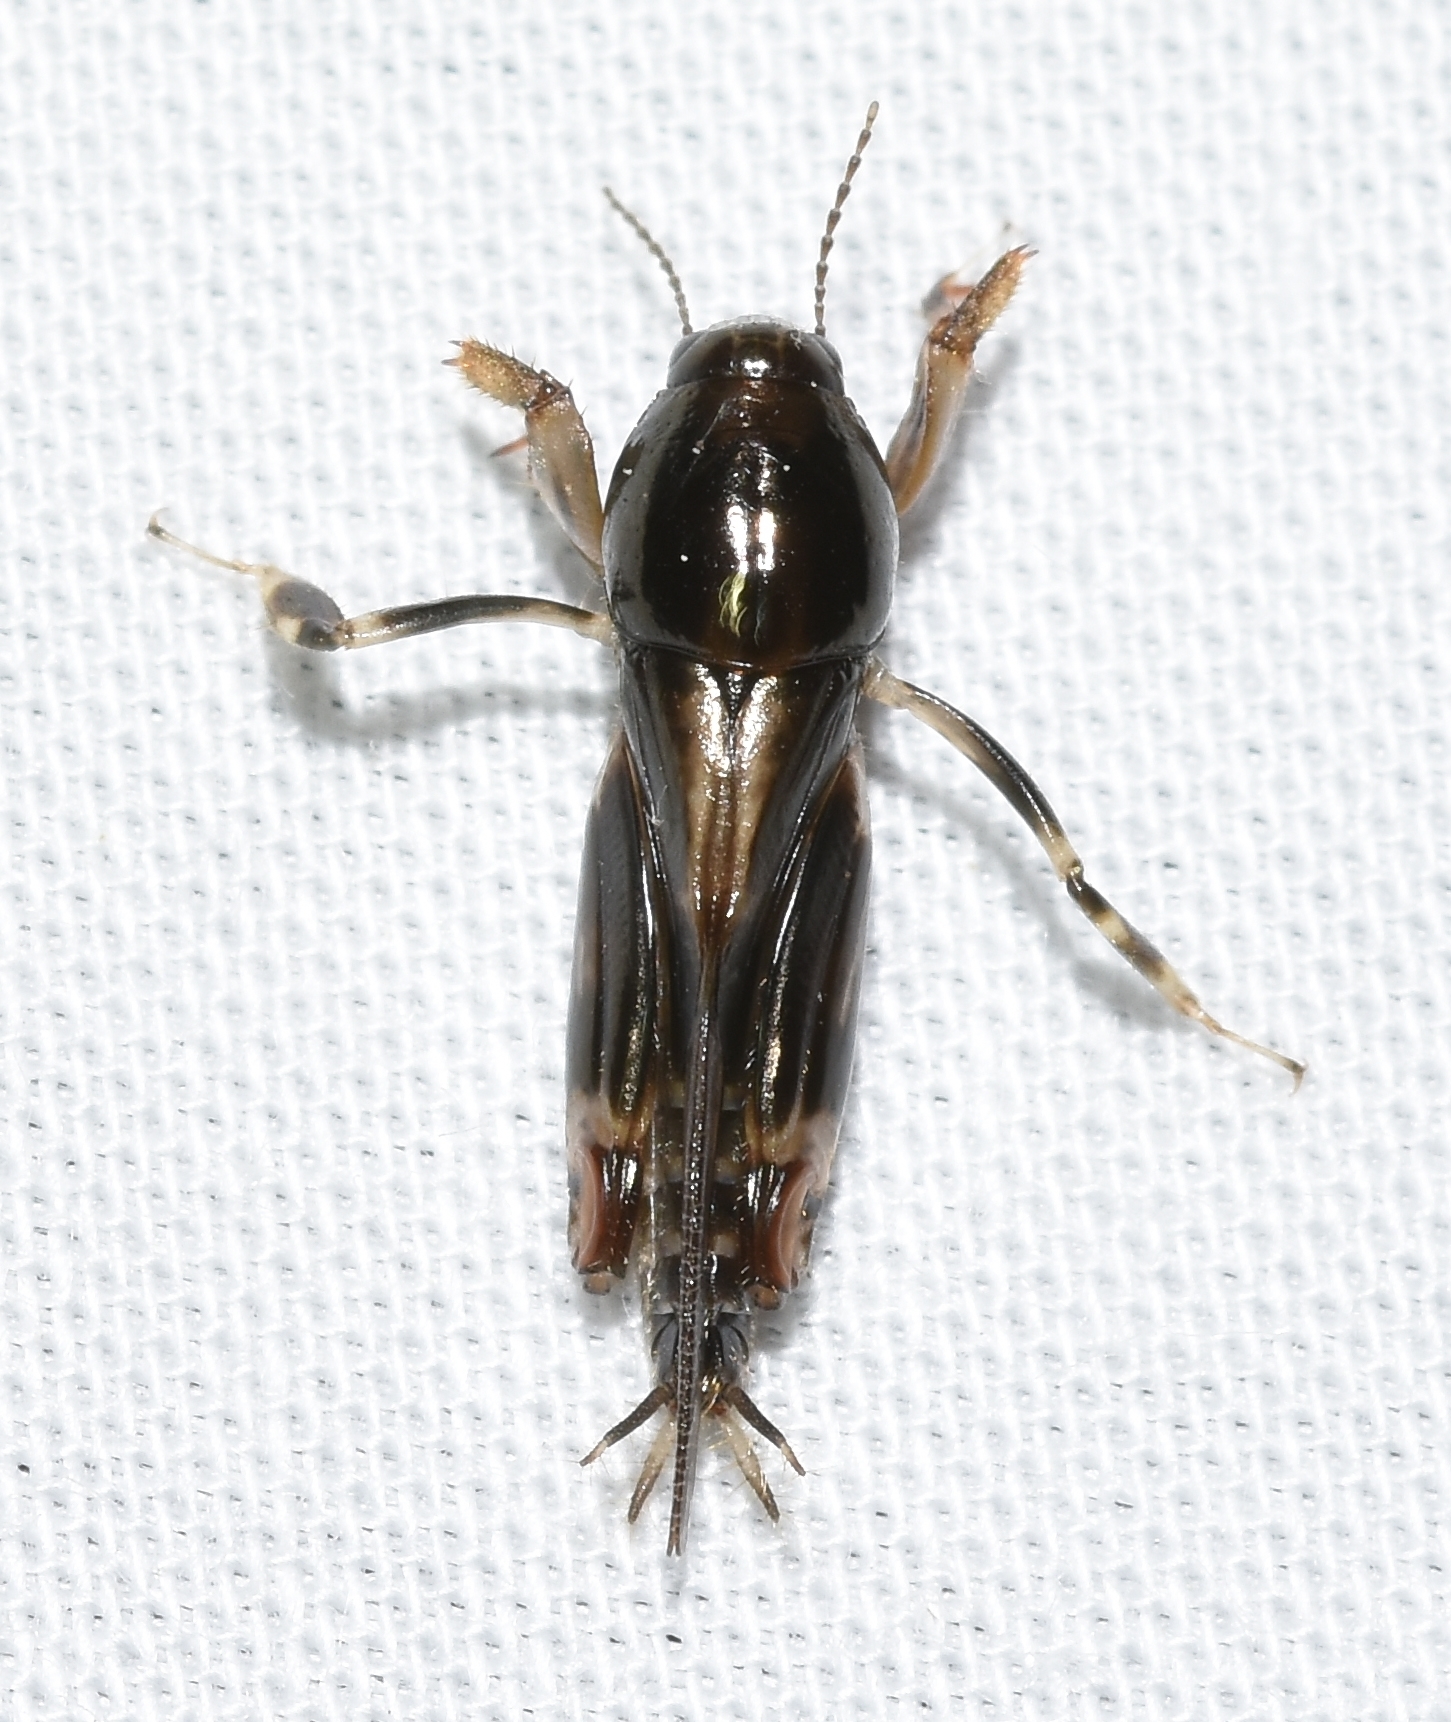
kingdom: Animalia
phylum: Arthropoda
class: Insecta
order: Orthoptera
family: Tridactylidae
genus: Neotridactylus
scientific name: Neotridactylus apicialis
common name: Larger pygmy locust
